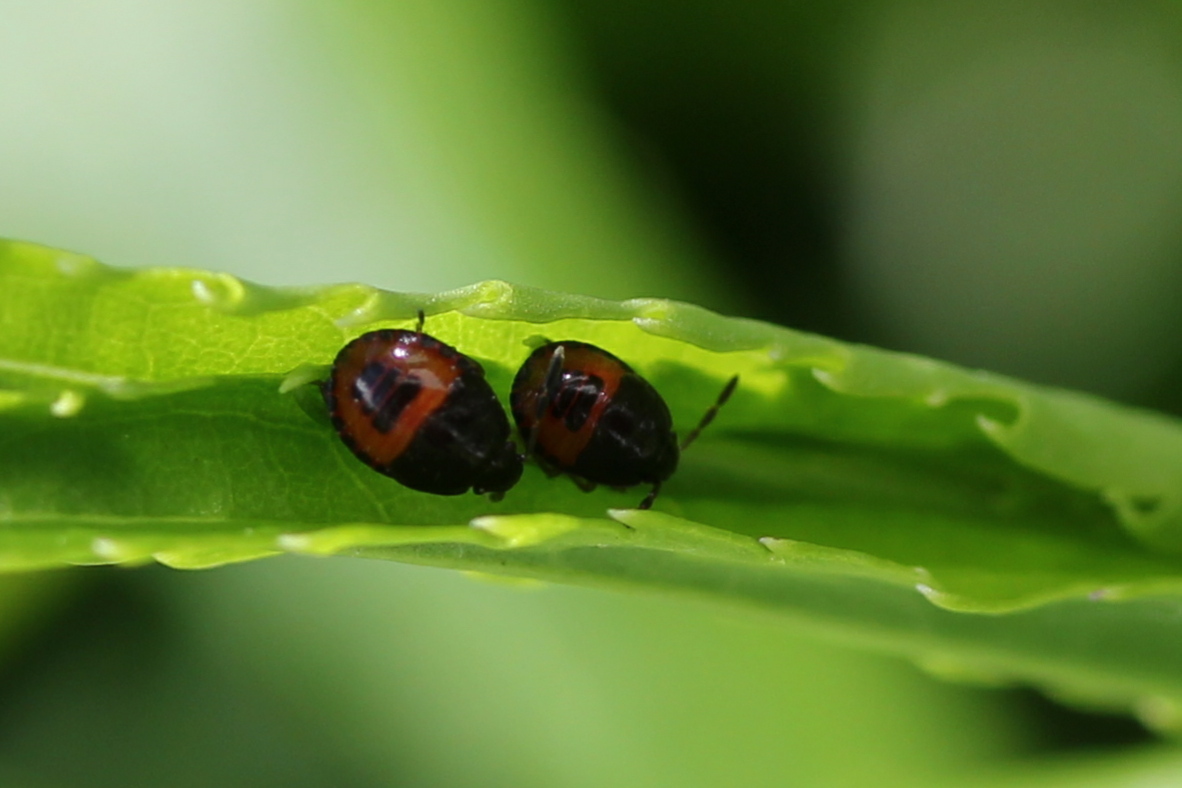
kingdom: Animalia
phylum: Arthropoda
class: Insecta
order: Hemiptera
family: Cydnidae
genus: Sehirus
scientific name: Sehirus cinctus
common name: White-margined burrower bug
